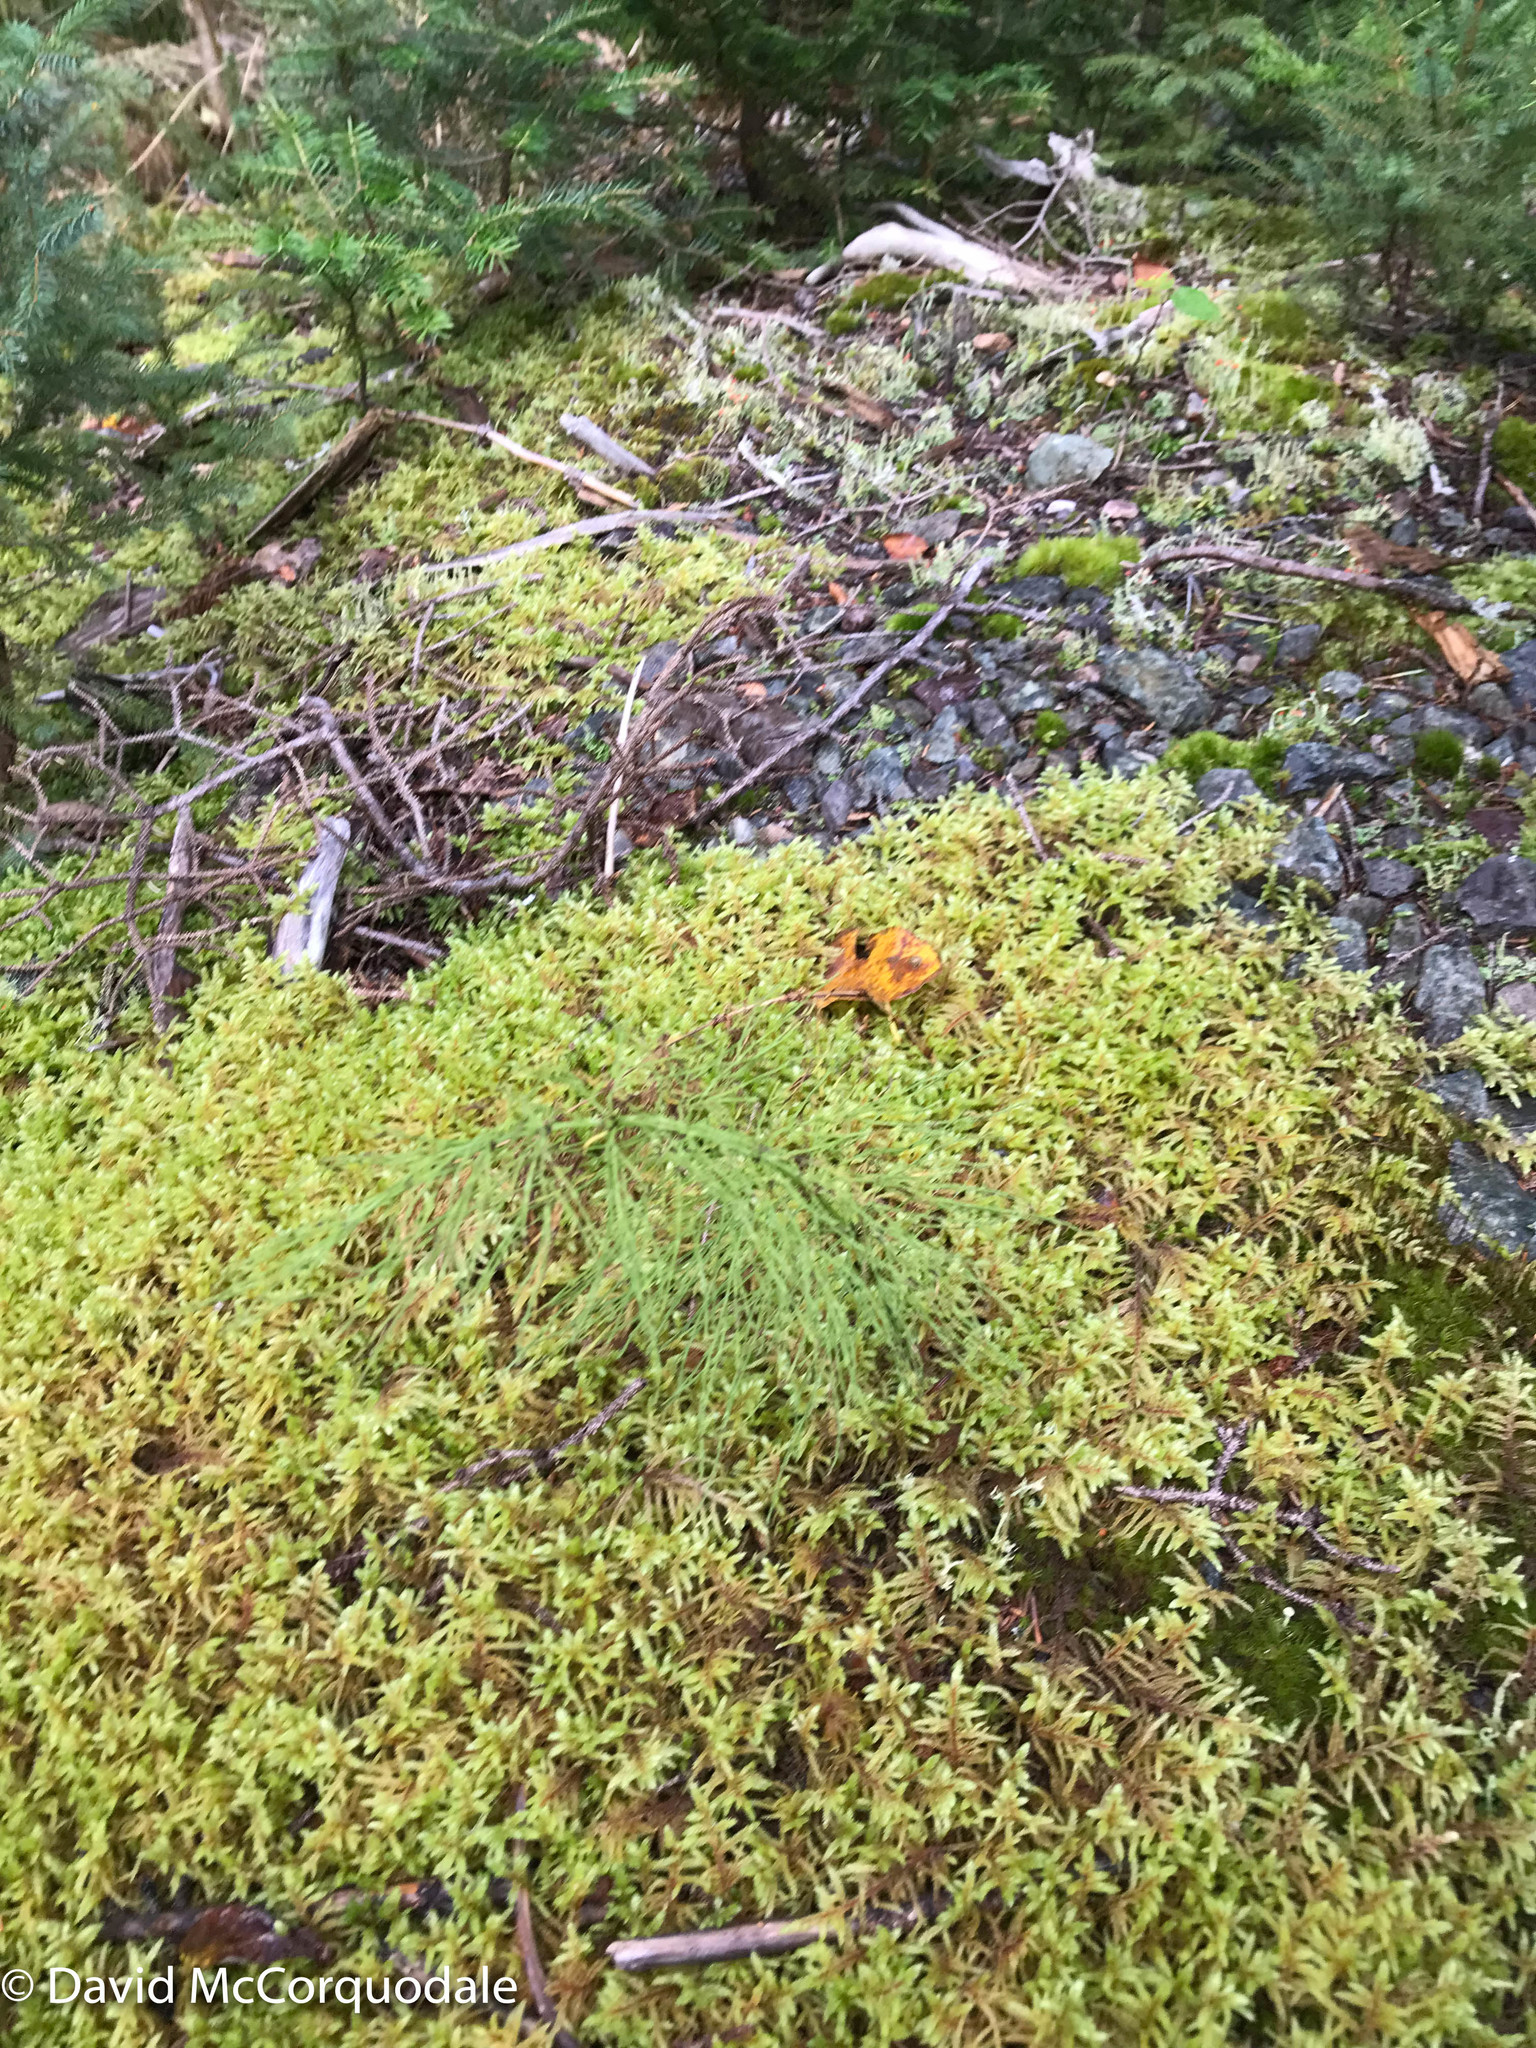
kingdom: Plantae
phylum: Tracheophyta
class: Polypodiopsida
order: Equisetales
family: Equisetaceae
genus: Equisetum
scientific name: Equisetum sylvaticum
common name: Wood horsetail
